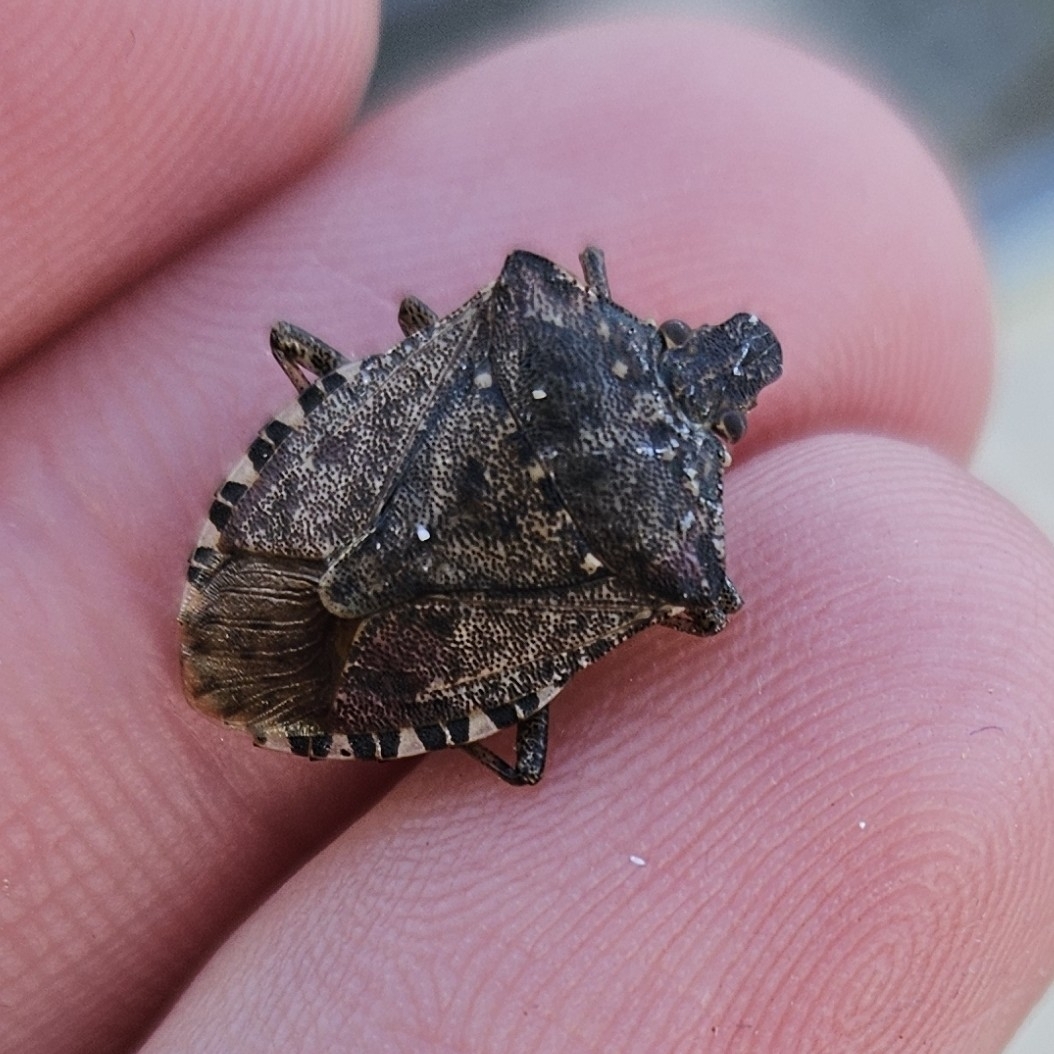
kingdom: Animalia
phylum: Arthropoda
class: Insecta
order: Hemiptera
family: Pentatomidae
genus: Halyomorpha
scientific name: Halyomorpha halys
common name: Brown marmorated stink bug
